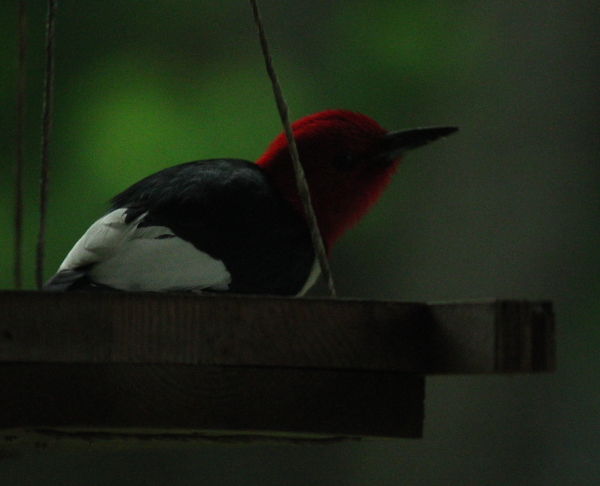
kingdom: Animalia
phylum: Chordata
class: Aves
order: Piciformes
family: Picidae
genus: Melanerpes
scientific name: Melanerpes erythrocephalus
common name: Red-headed woodpecker
